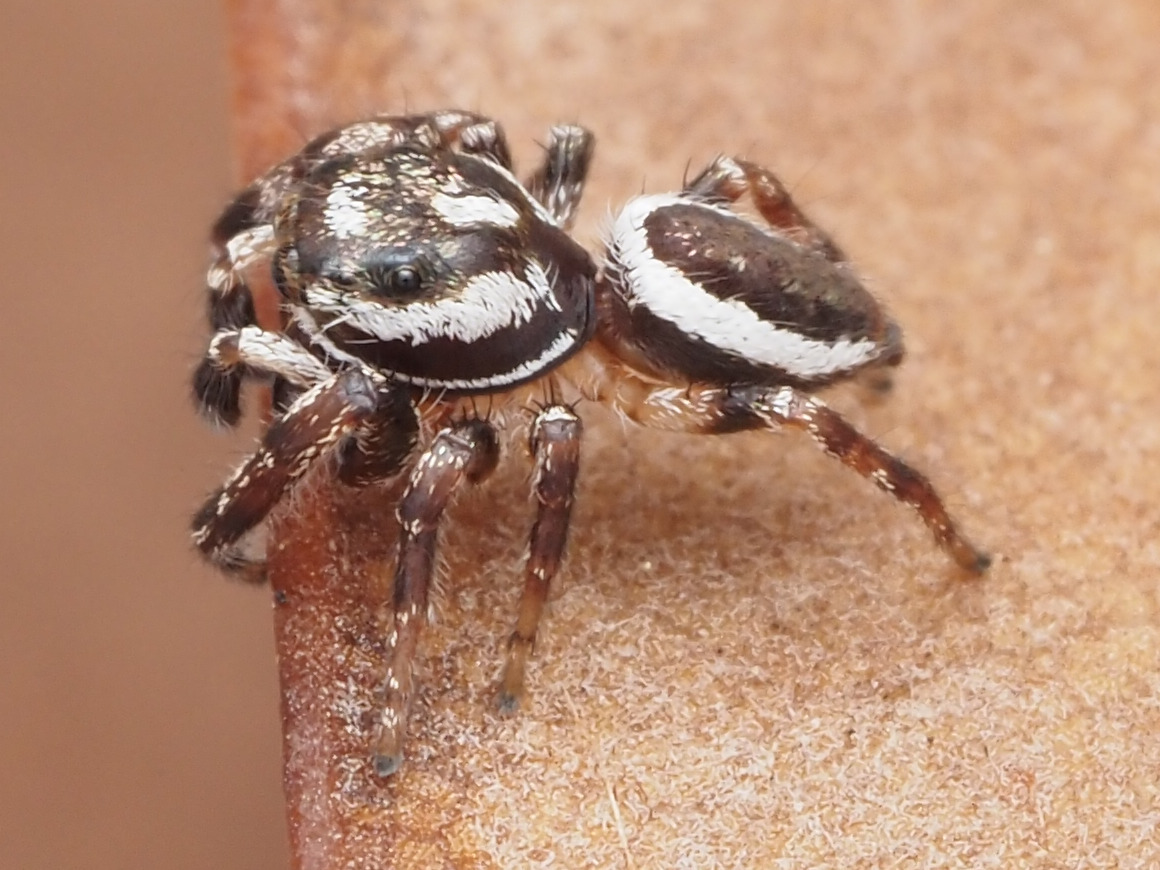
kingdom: Animalia
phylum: Arthropoda
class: Arachnida
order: Araneae
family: Salticidae
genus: Eris
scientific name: Eris flava
